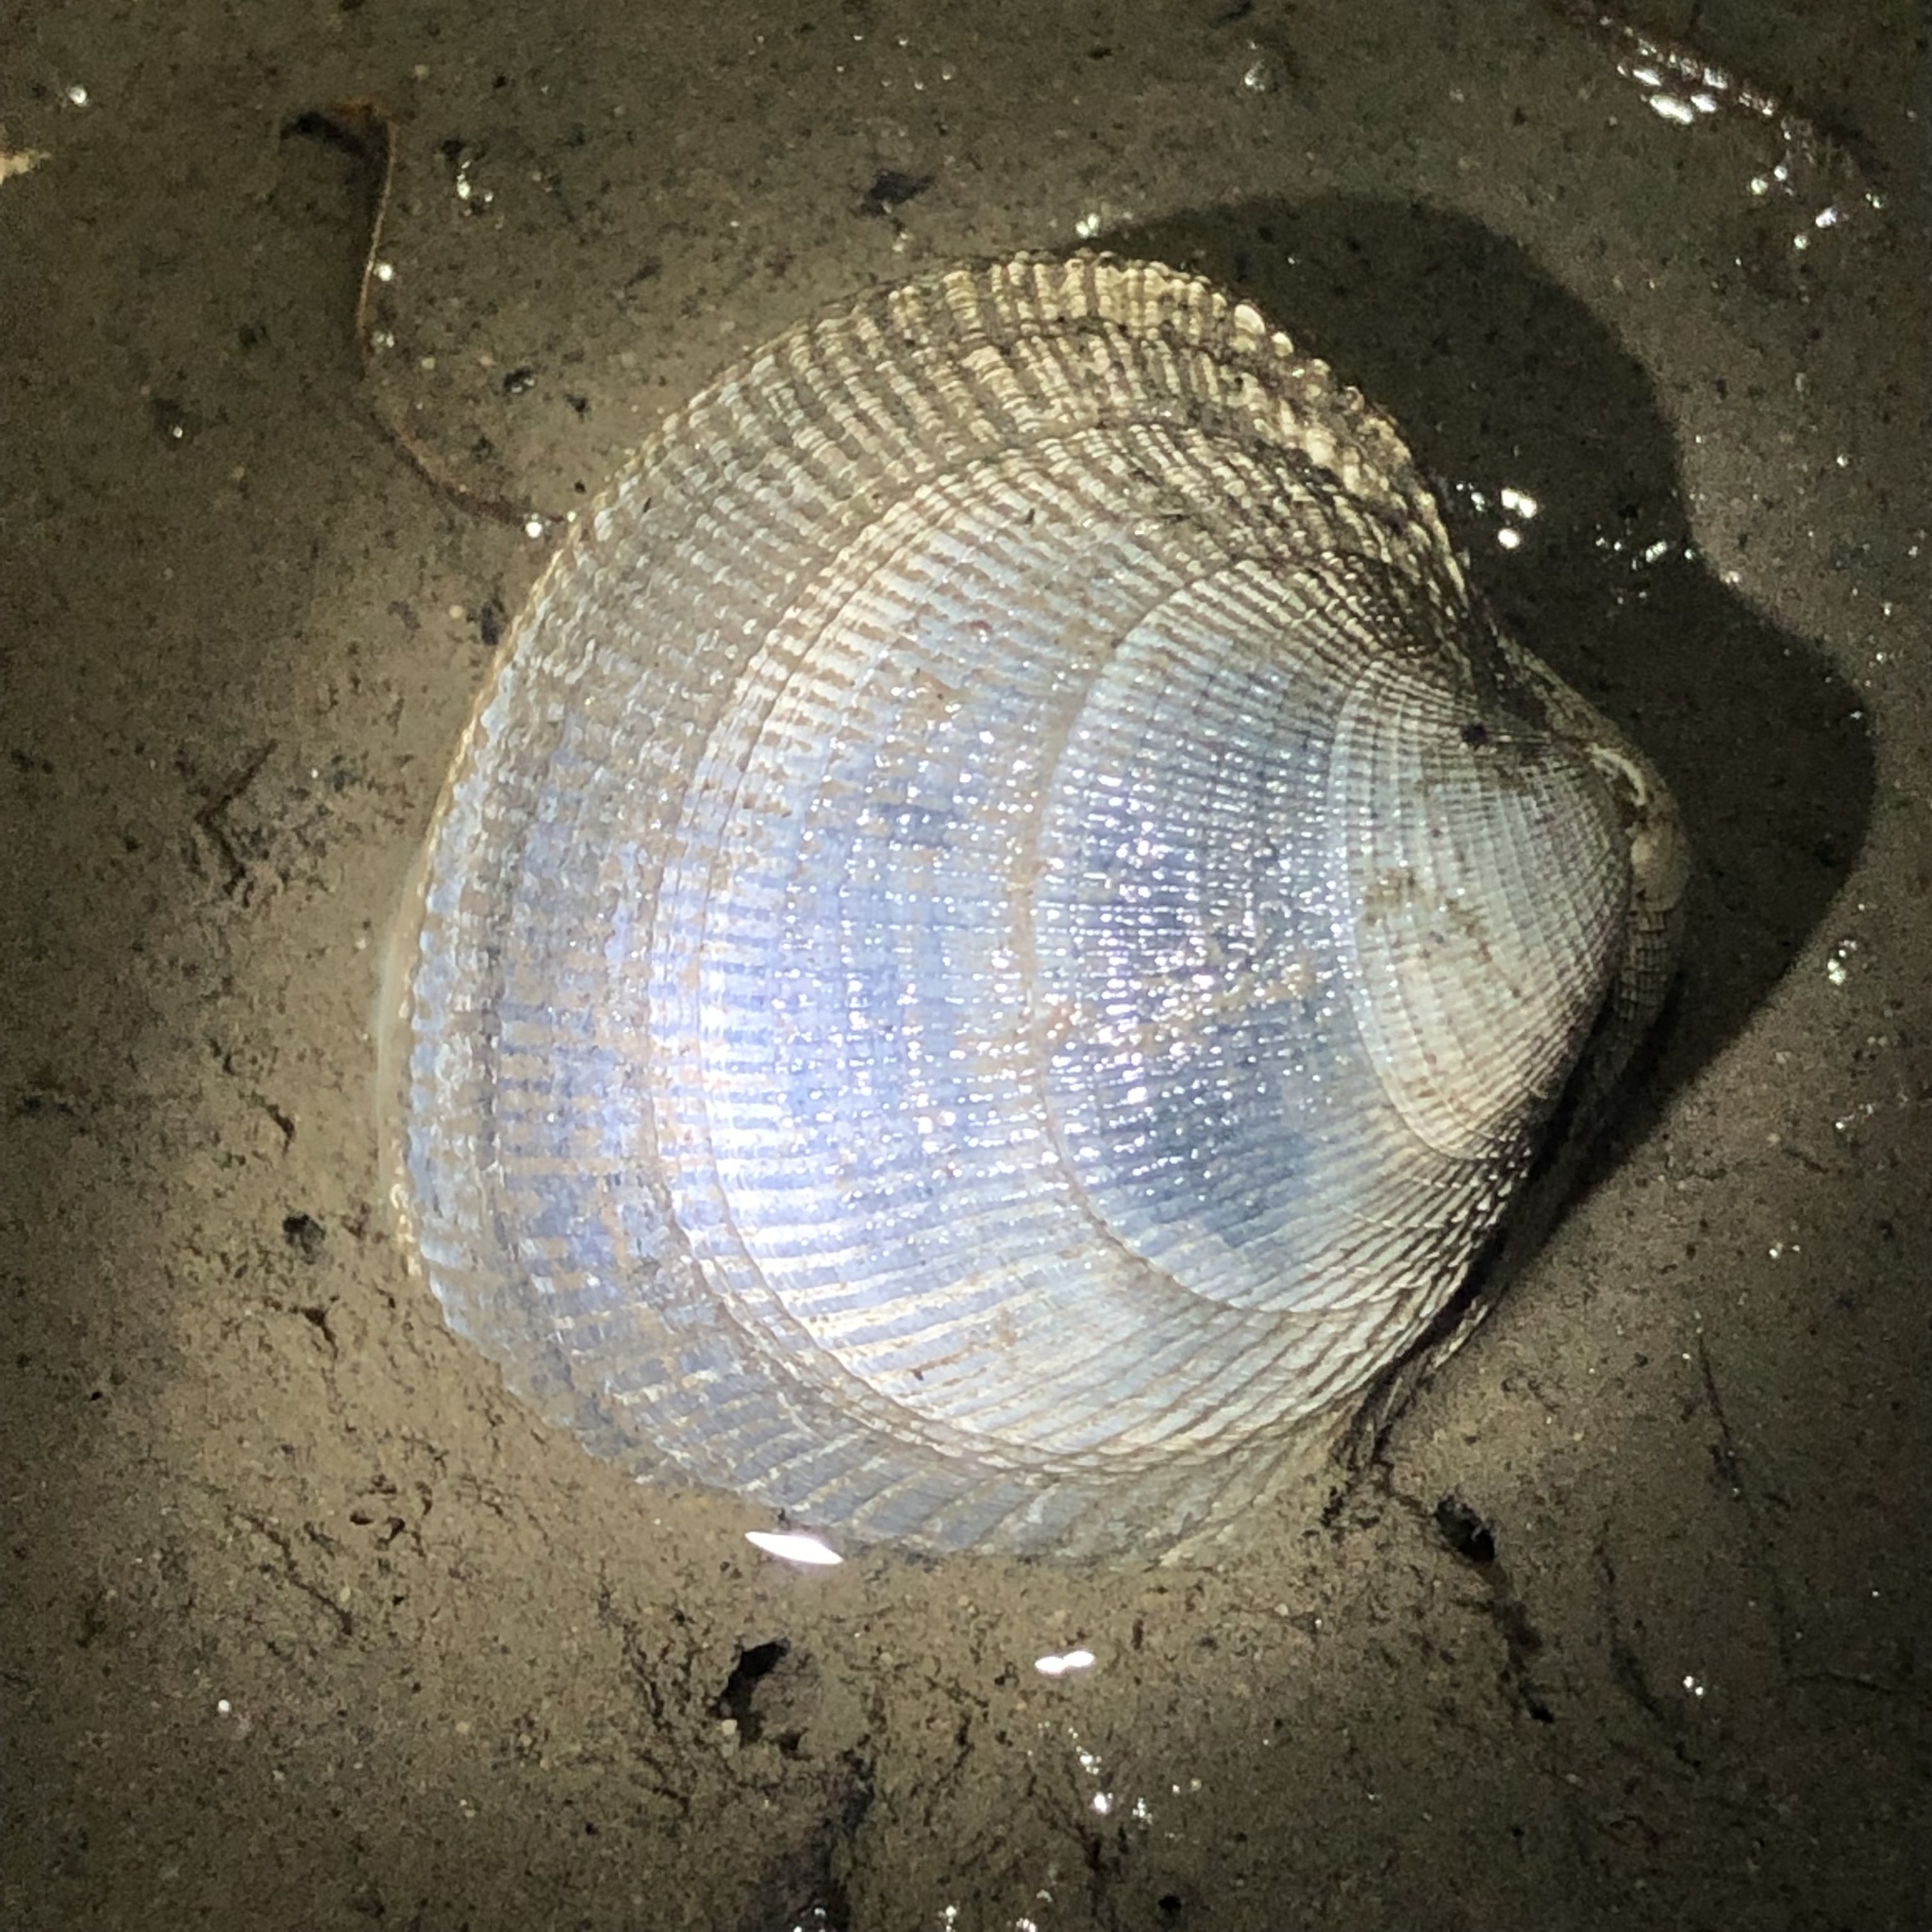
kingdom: Animalia
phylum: Mollusca
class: Bivalvia
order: Venerida
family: Veneridae
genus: Leukoma
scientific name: Leukoma staminea
